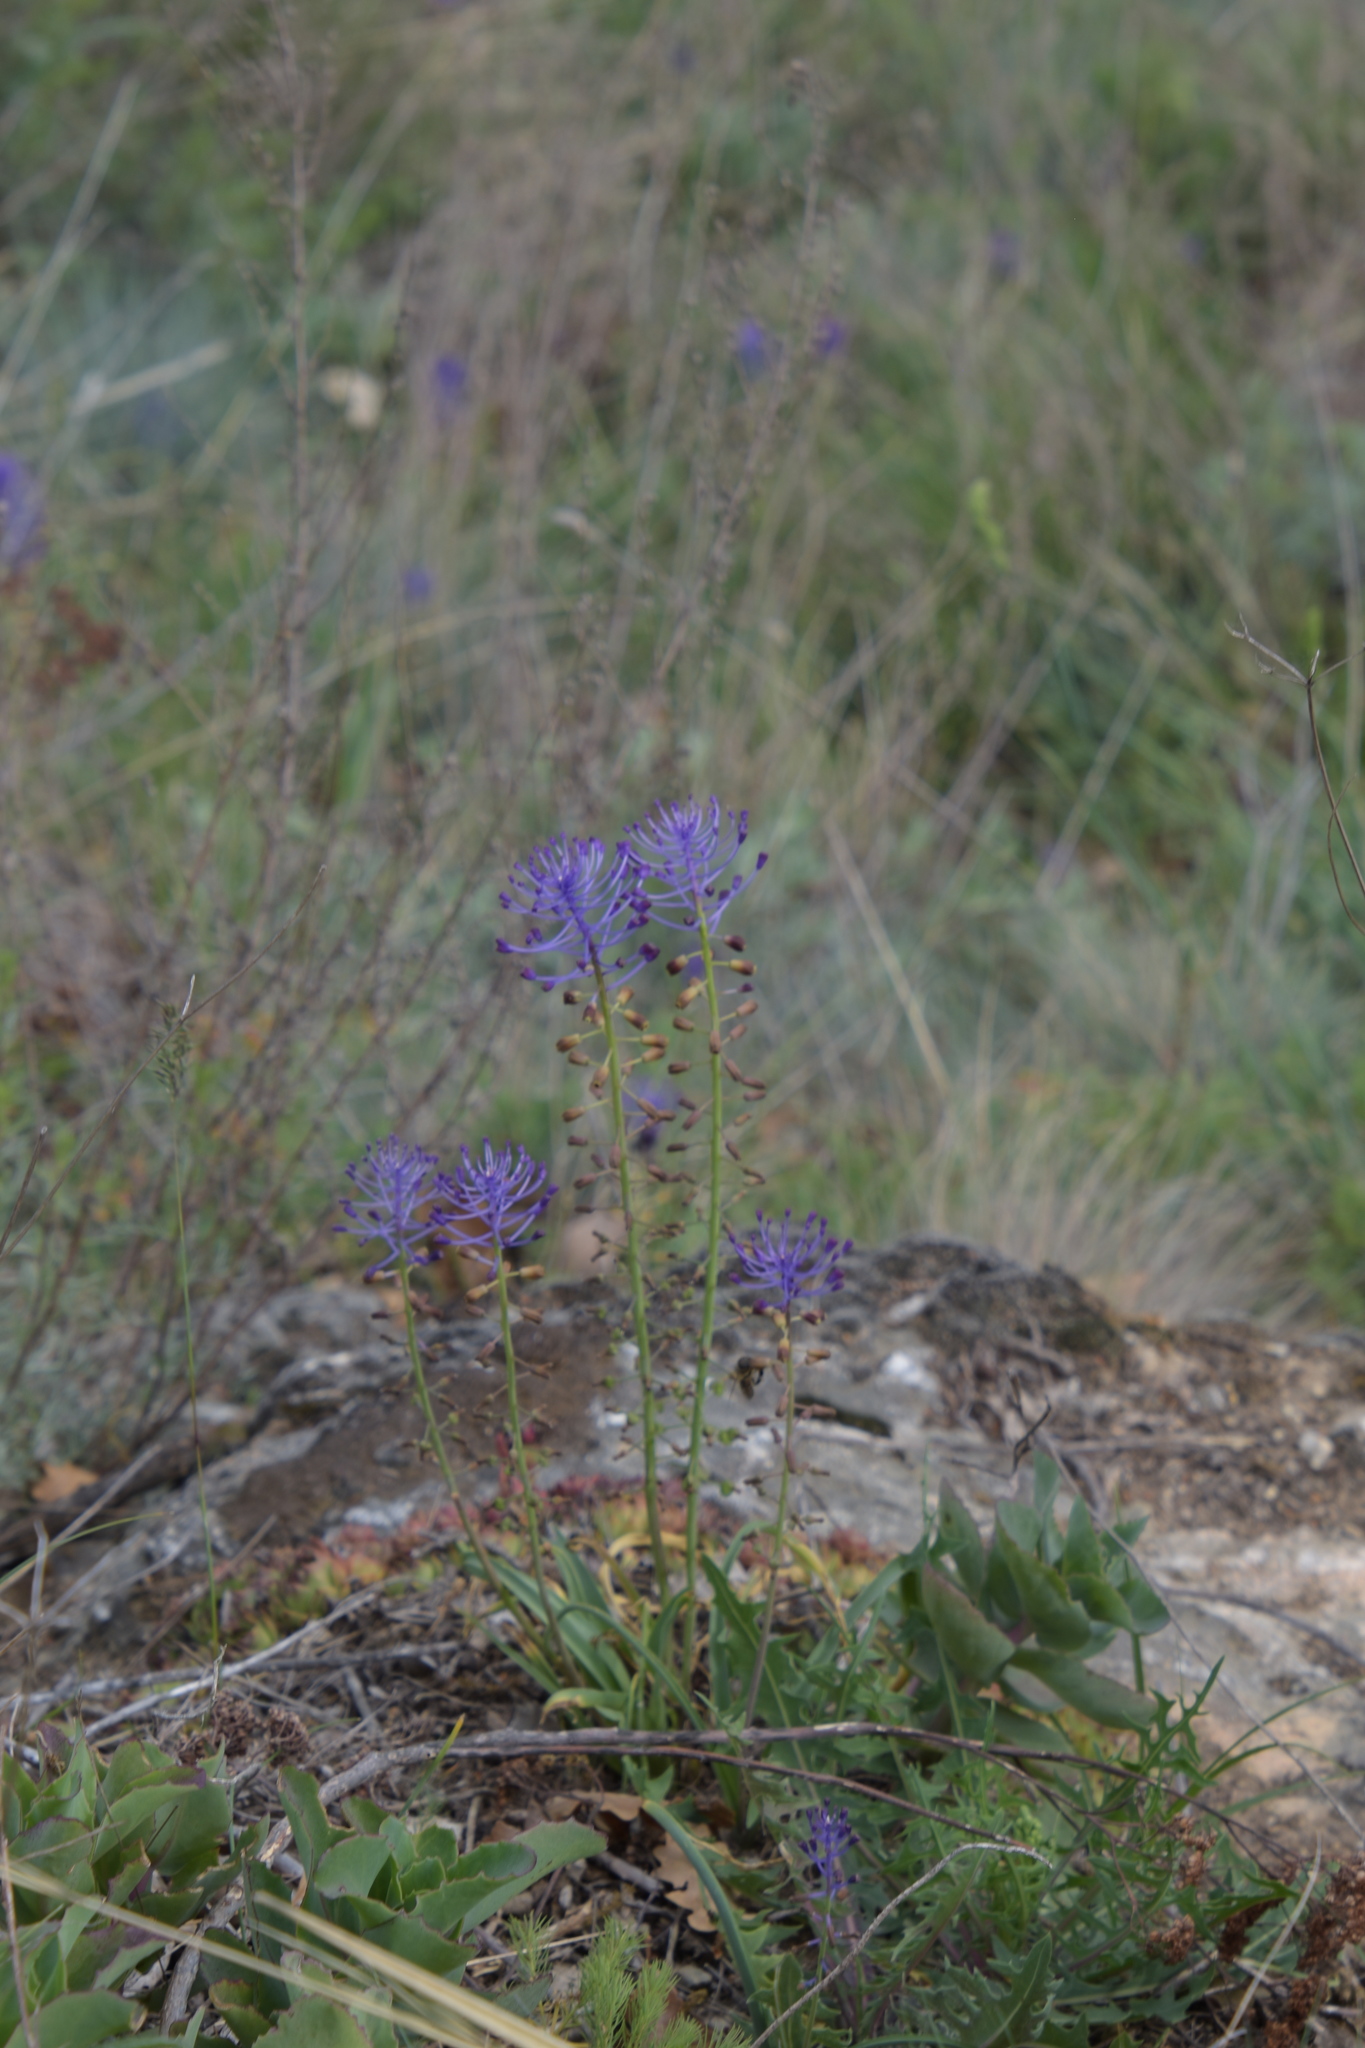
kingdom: Plantae
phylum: Tracheophyta
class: Liliopsida
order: Asparagales
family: Asparagaceae
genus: Muscari
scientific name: Muscari comosum
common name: Tassel hyacinth
